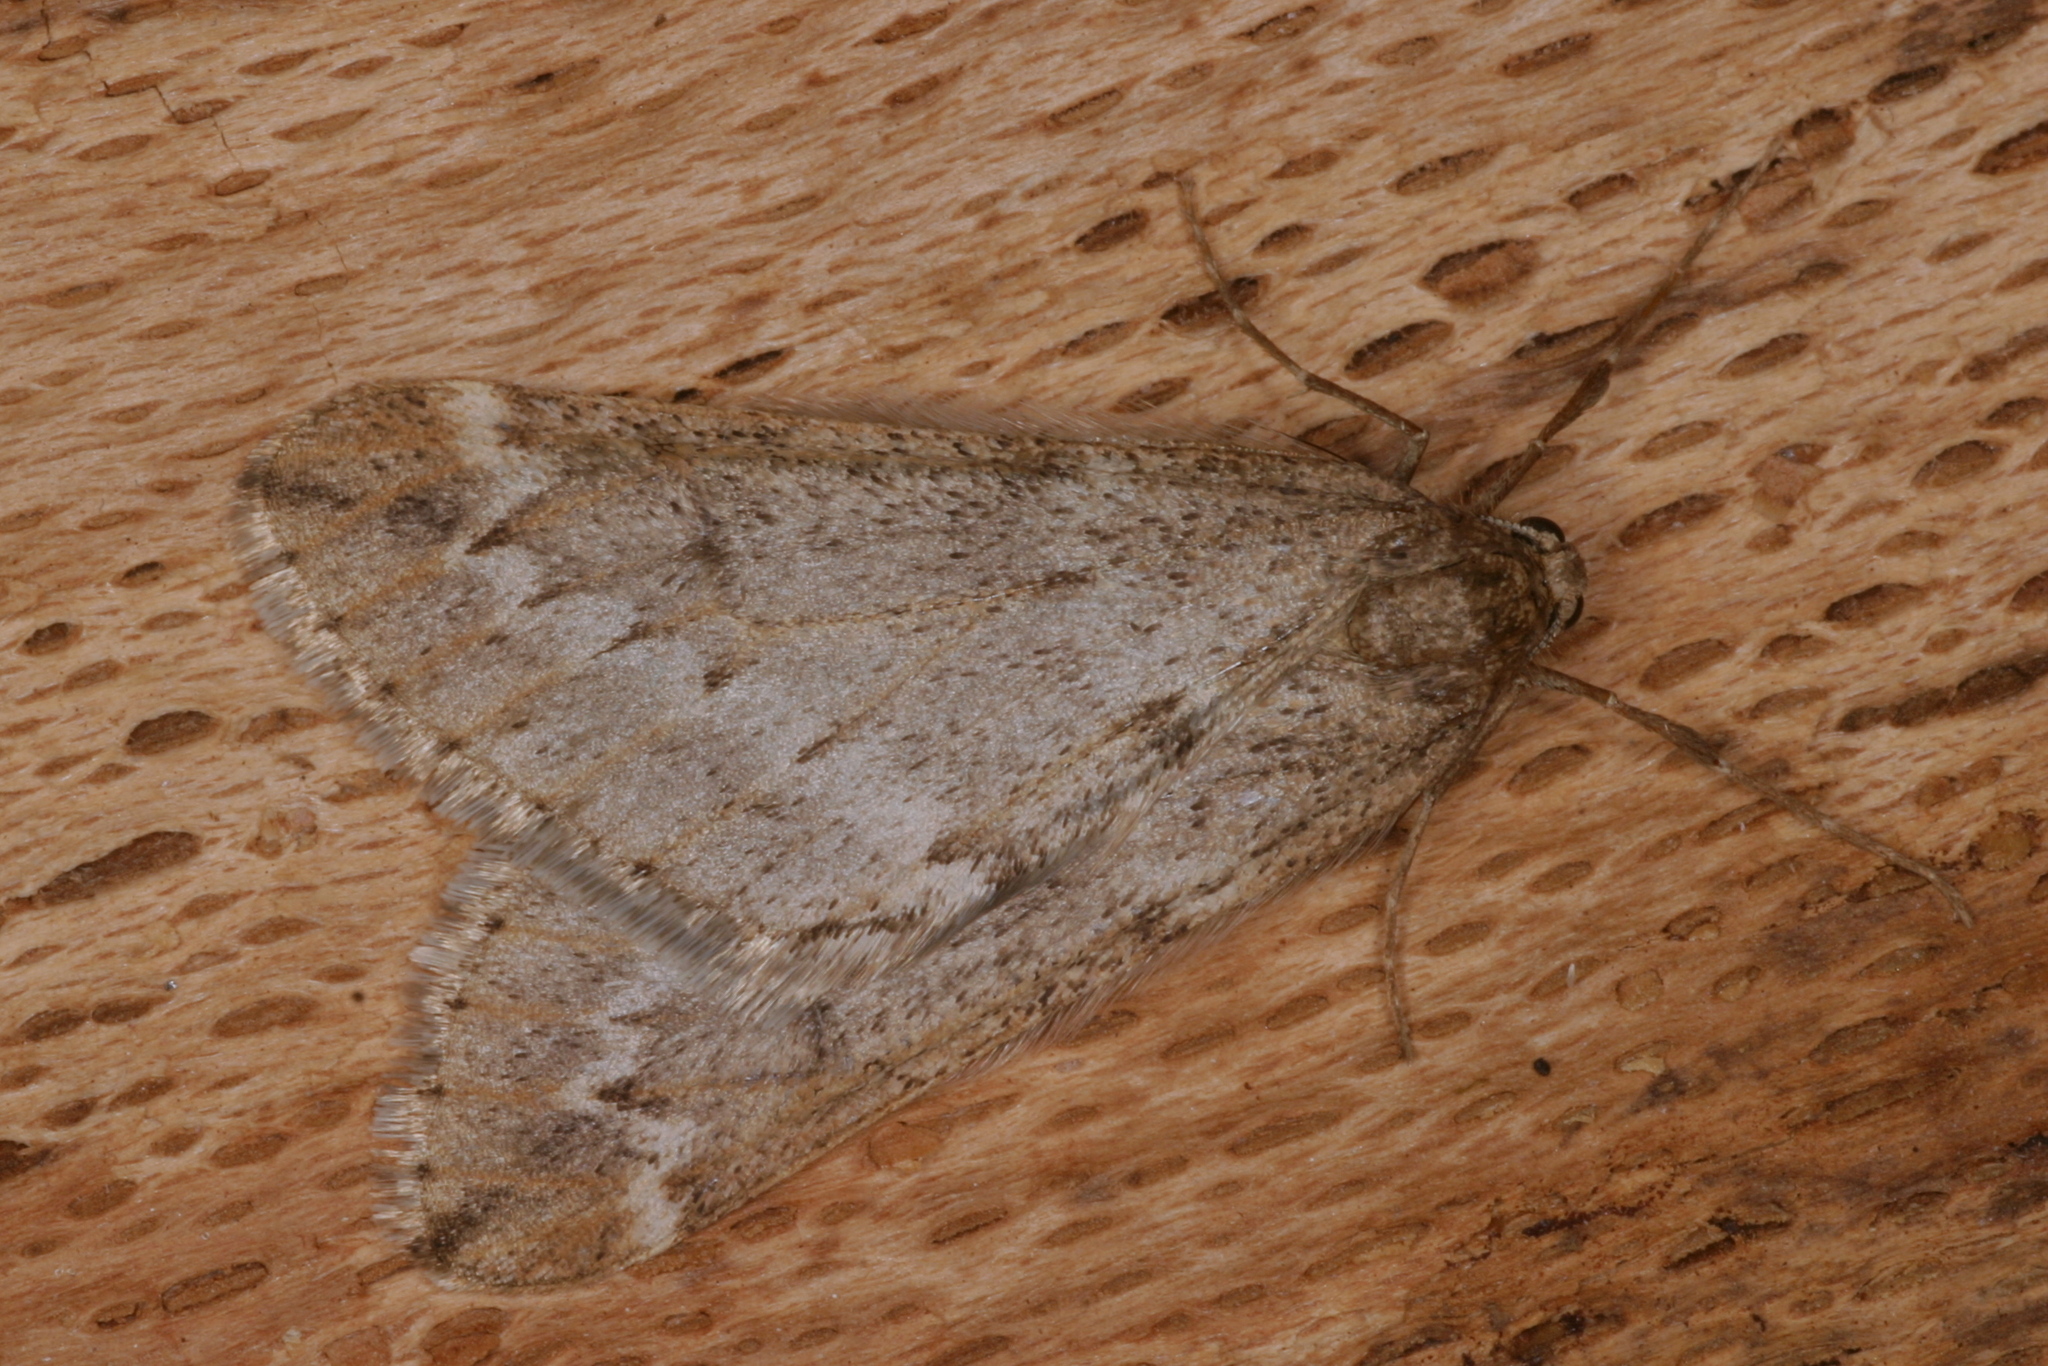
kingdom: Animalia
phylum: Arthropoda
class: Insecta
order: Lepidoptera
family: Geometridae
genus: Alsophila
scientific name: Alsophila aescularia
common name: March moth
